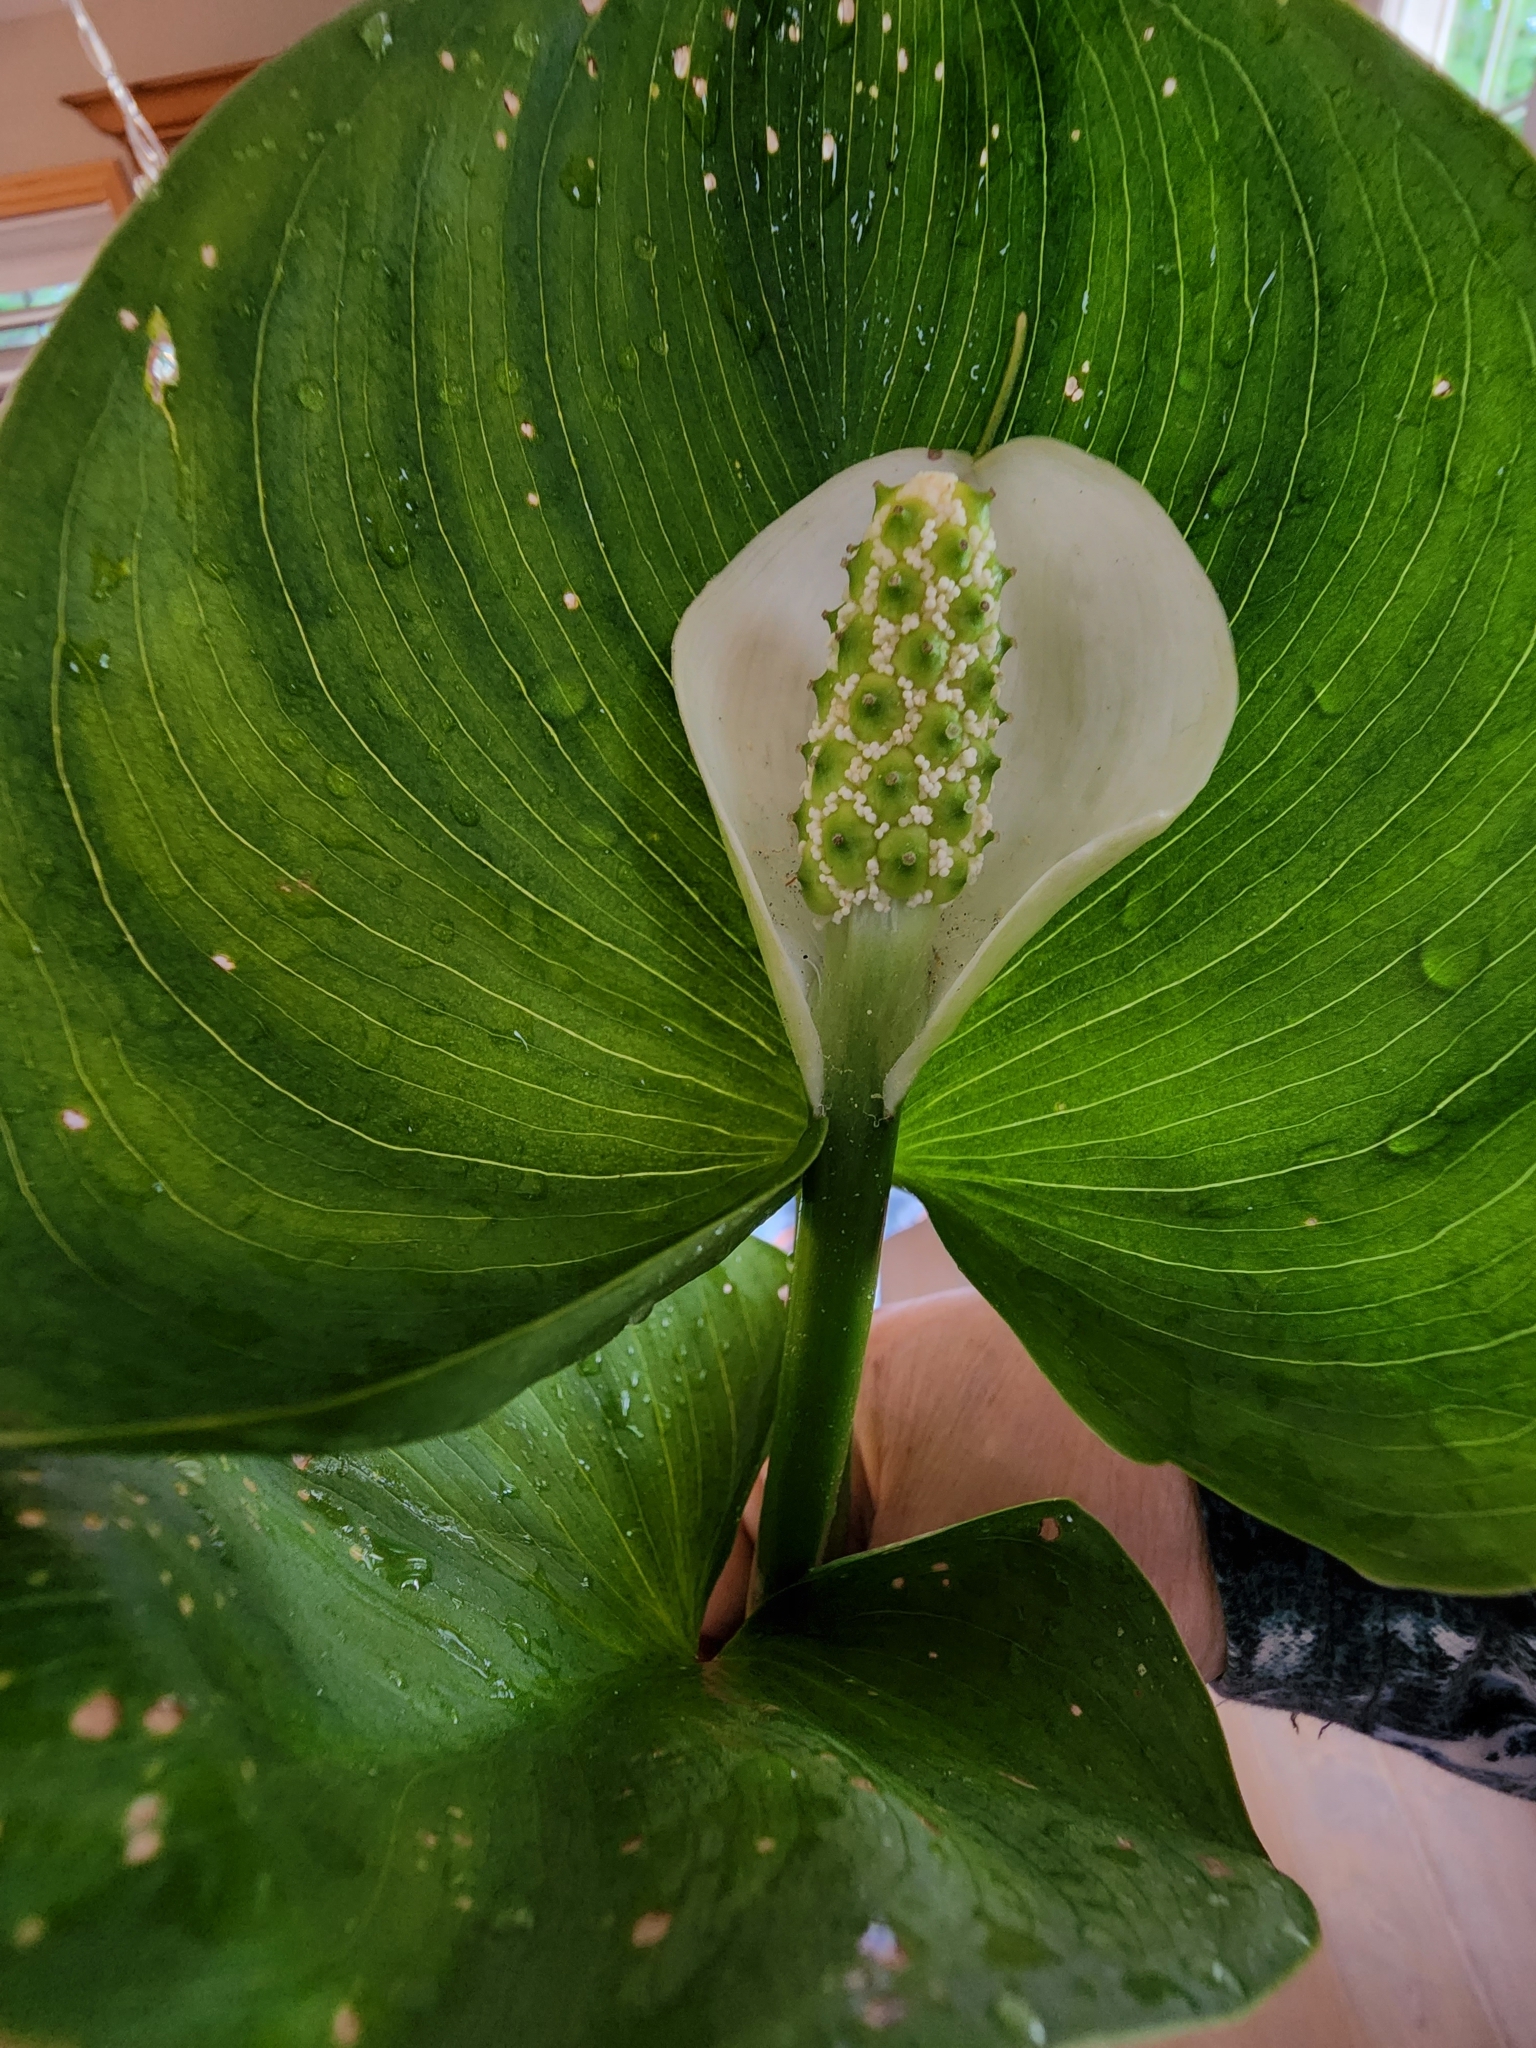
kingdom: Plantae
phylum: Tracheophyta
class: Liliopsida
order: Alismatales
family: Araceae
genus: Calla
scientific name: Calla palustris
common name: Bog arum
